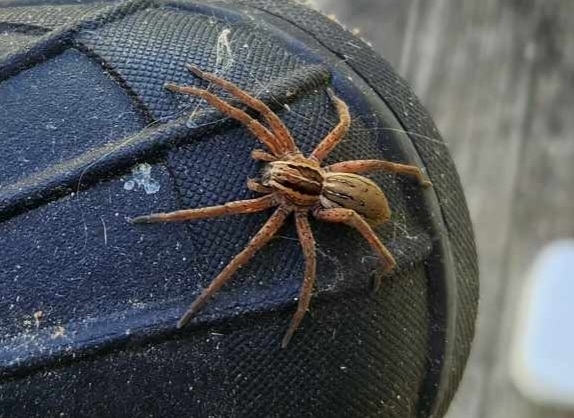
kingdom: Animalia
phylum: Arthropoda
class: Arachnida
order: Araneae
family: Pisauridae
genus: Dolomedes
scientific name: Dolomedes minor
